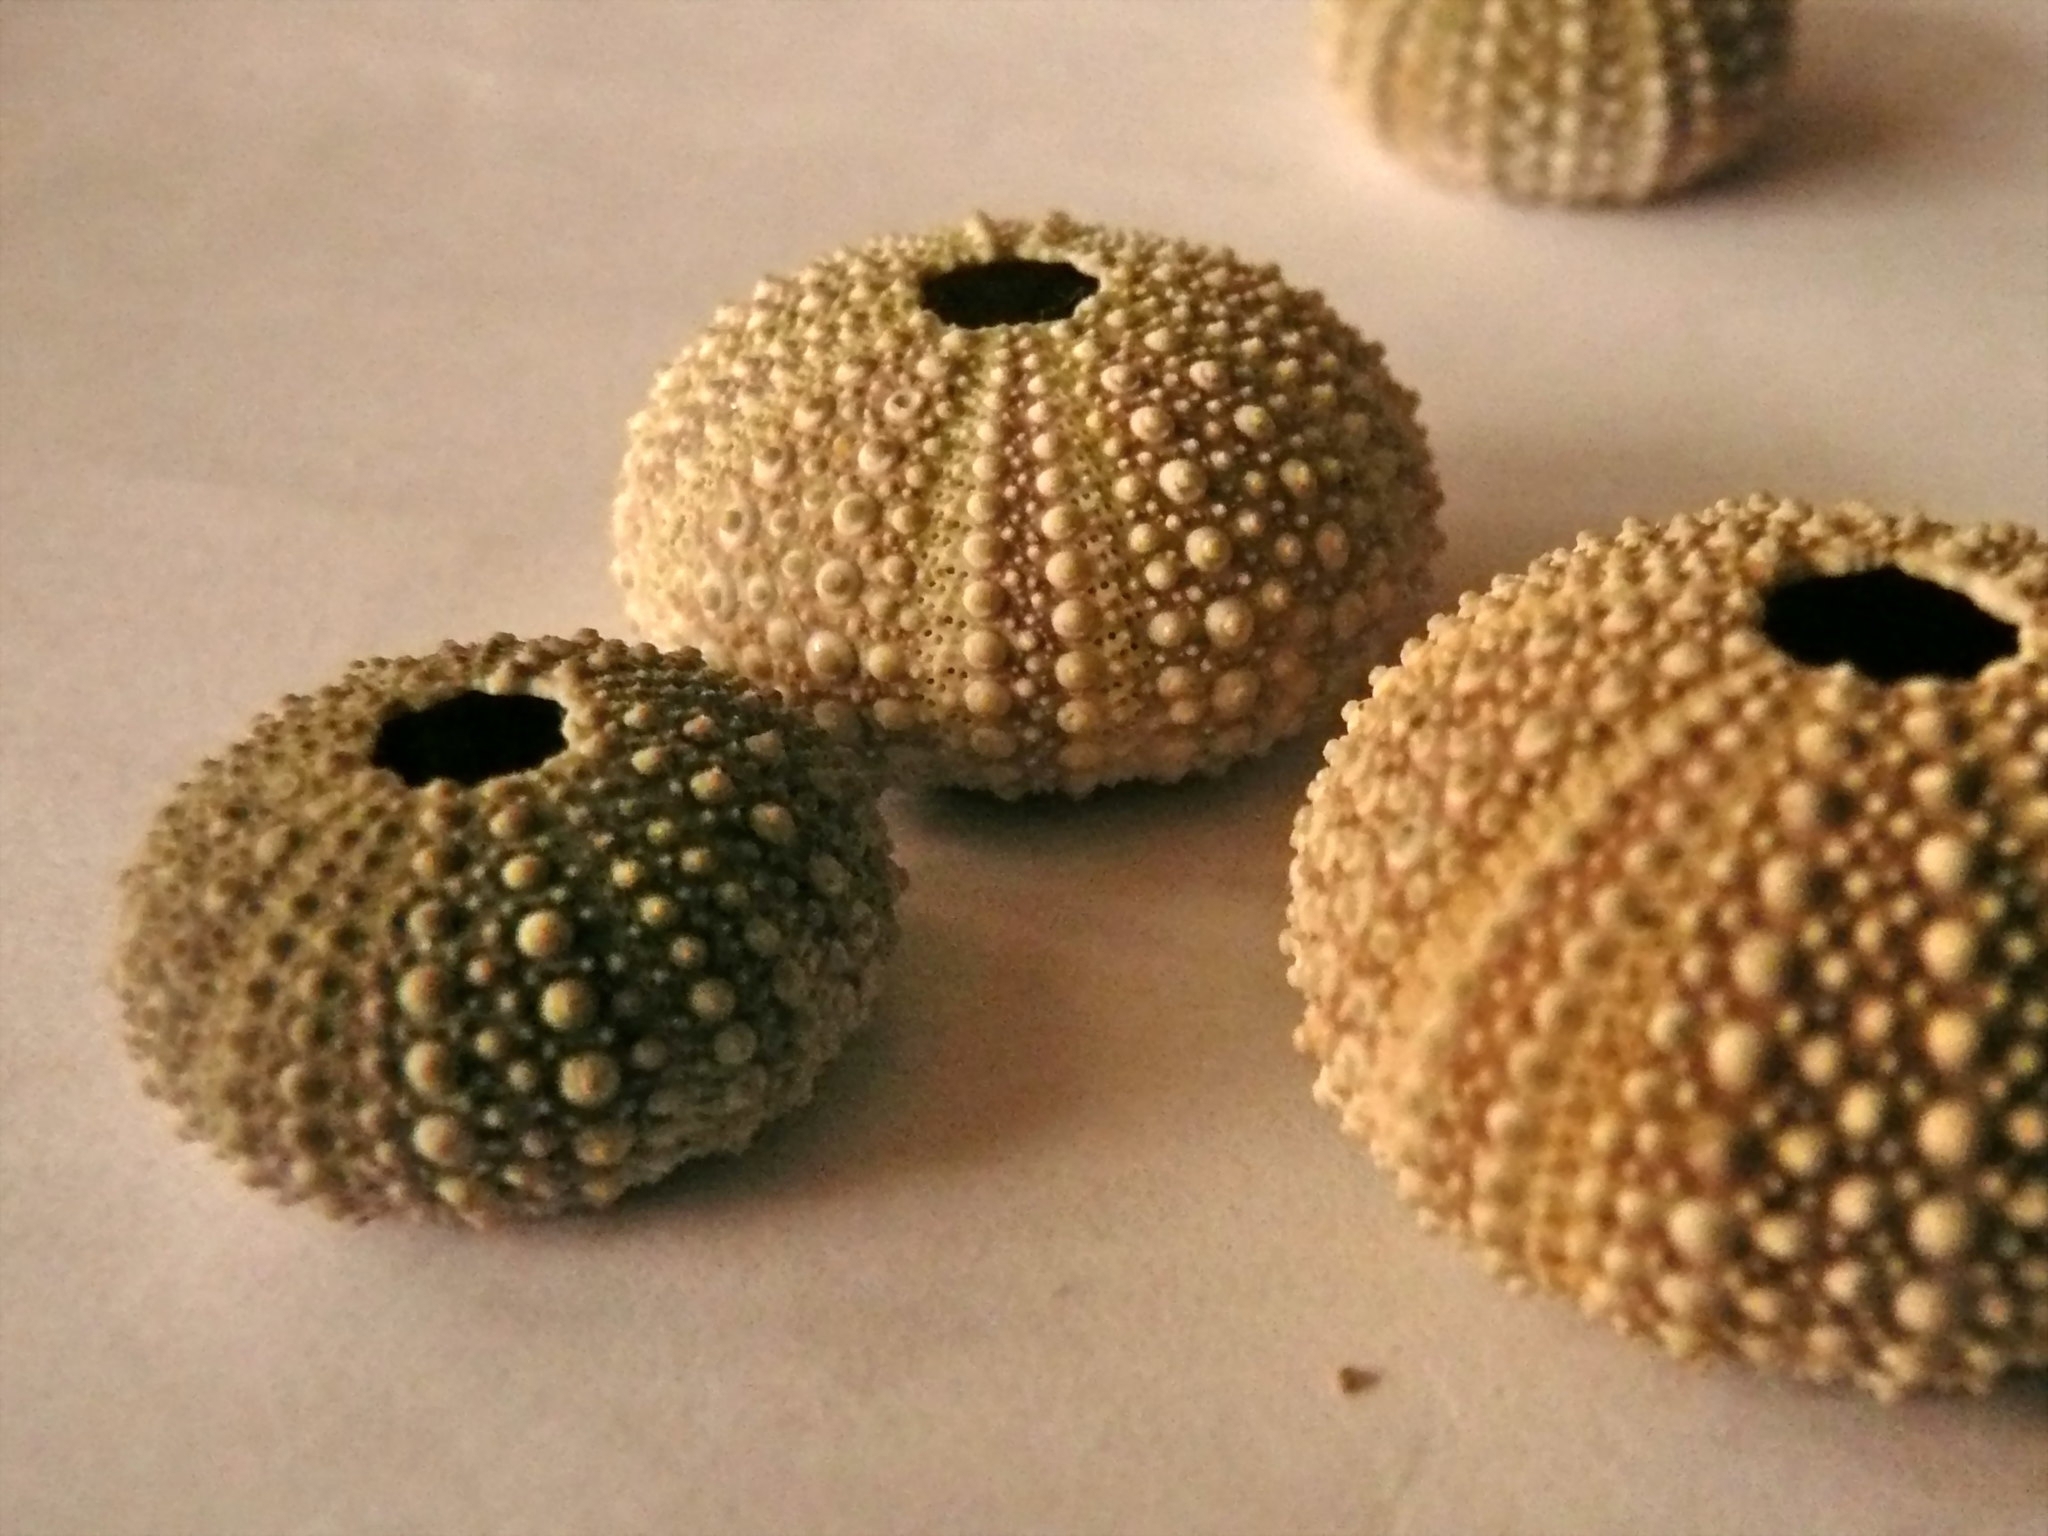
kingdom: Animalia
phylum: Echinodermata
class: Echinoidea
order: Camarodonta
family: Parechinidae
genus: Psammechinus
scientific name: Psammechinus miliaris
